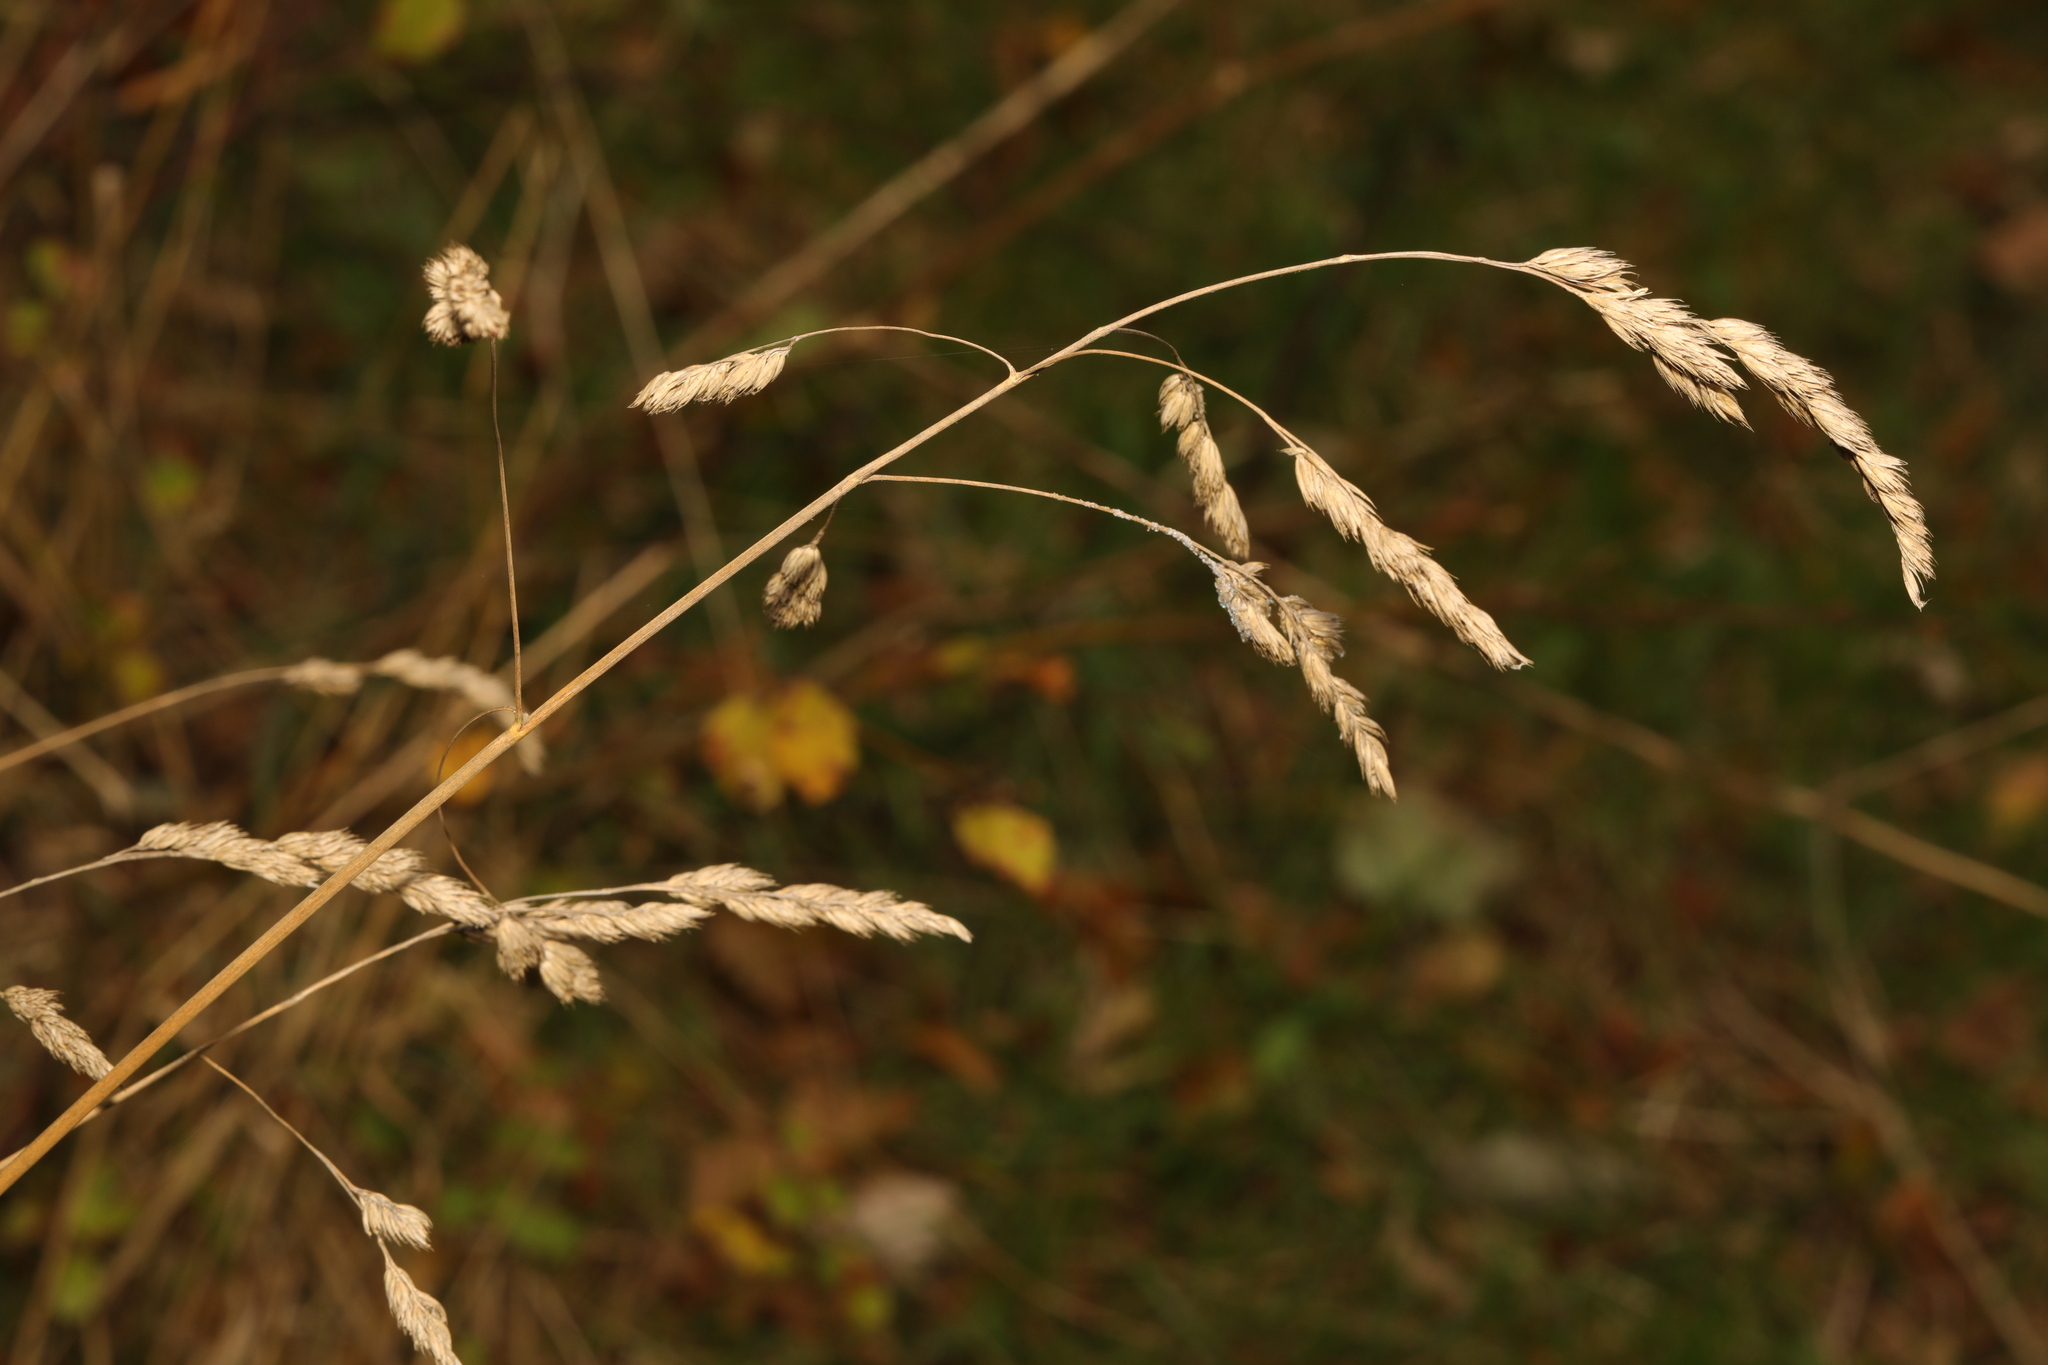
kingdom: Plantae
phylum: Tracheophyta
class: Liliopsida
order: Poales
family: Poaceae
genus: Dactylis
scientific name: Dactylis glomerata
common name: Orchardgrass
